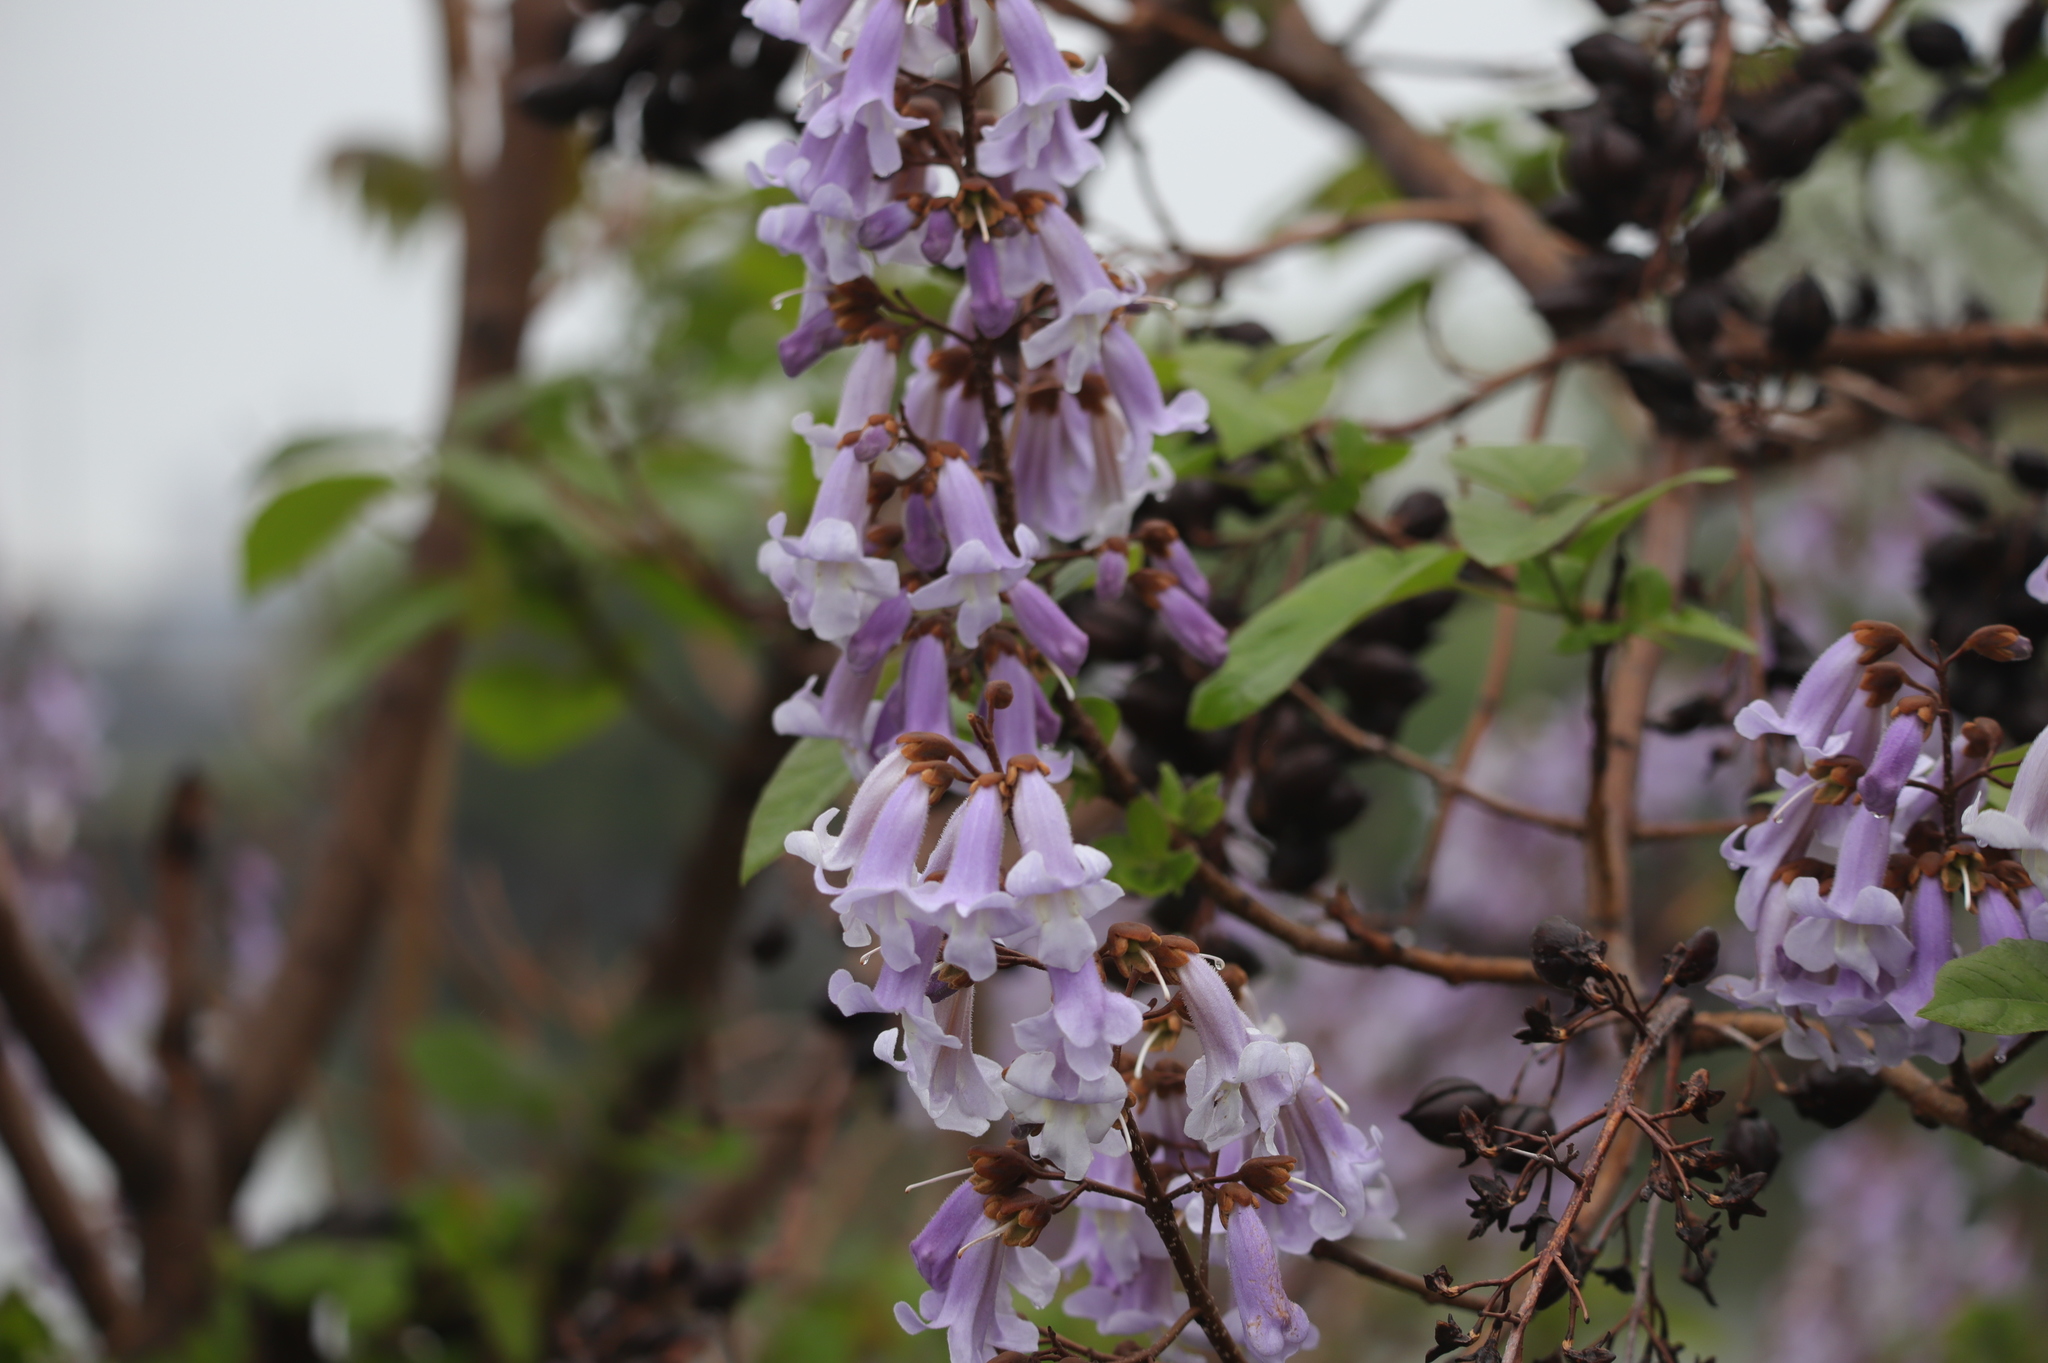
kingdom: Plantae
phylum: Tracheophyta
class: Magnoliopsida
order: Lamiales
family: Paulowniaceae
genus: Paulownia
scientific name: Paulownia tomentosa
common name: Foxglove-tree
